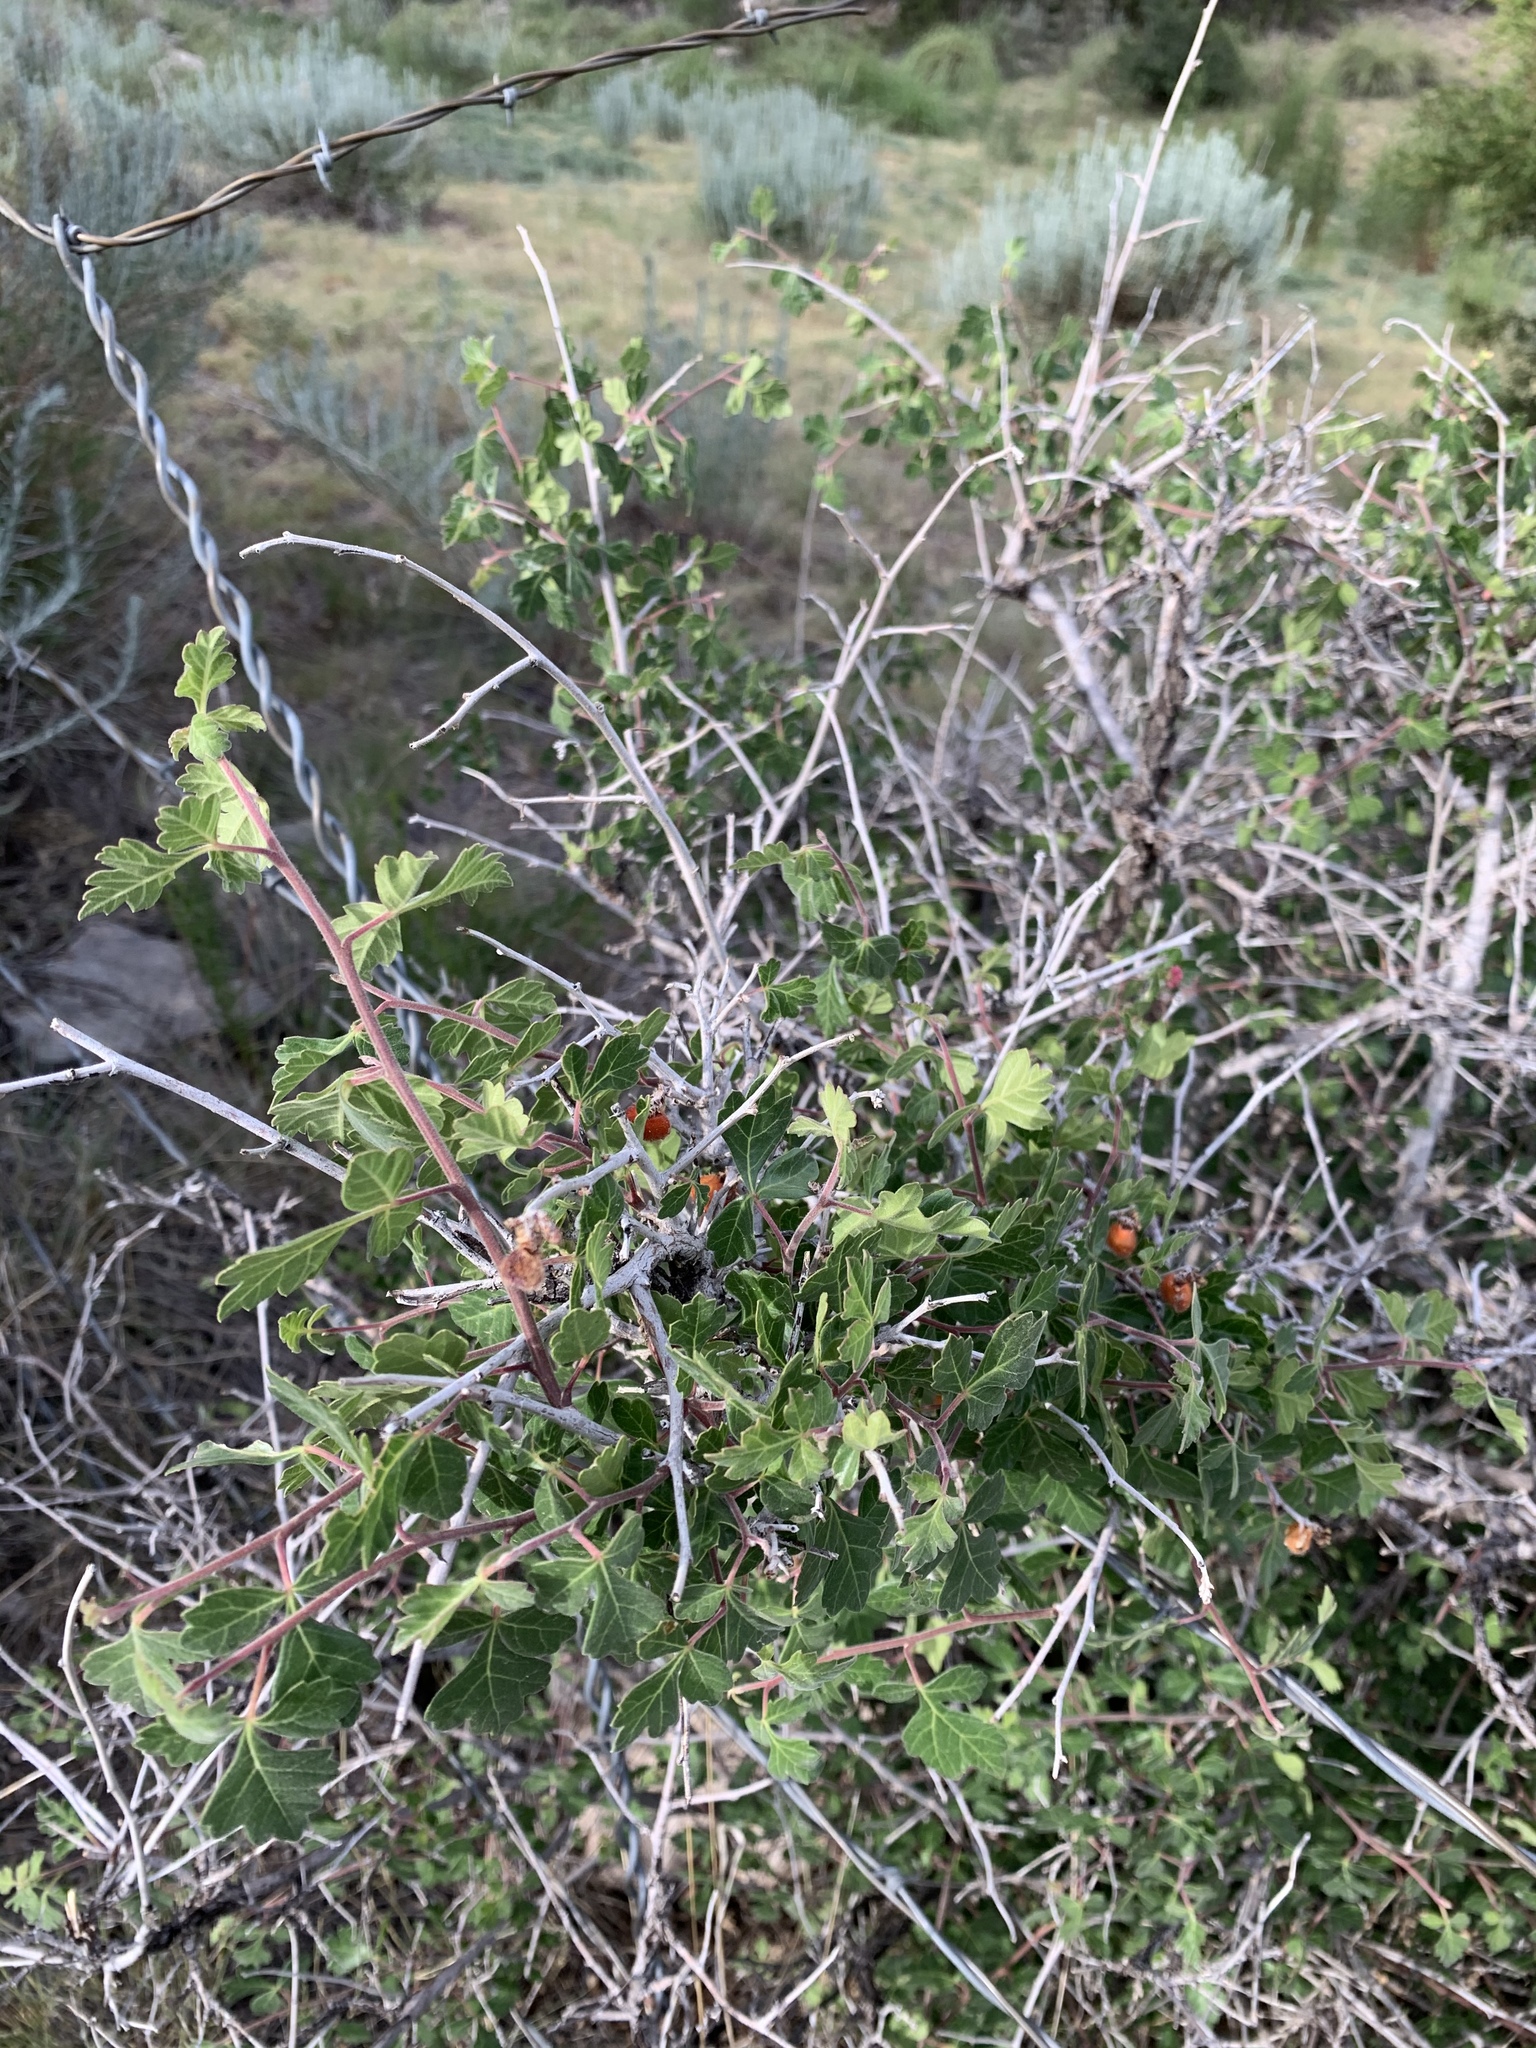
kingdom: Plantae
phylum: Tracheophyta
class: Magnoliopsida
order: Sapindales
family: Anacardiaceae
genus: Rhus
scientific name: Rhus aromatica
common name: Aromatic sumac
